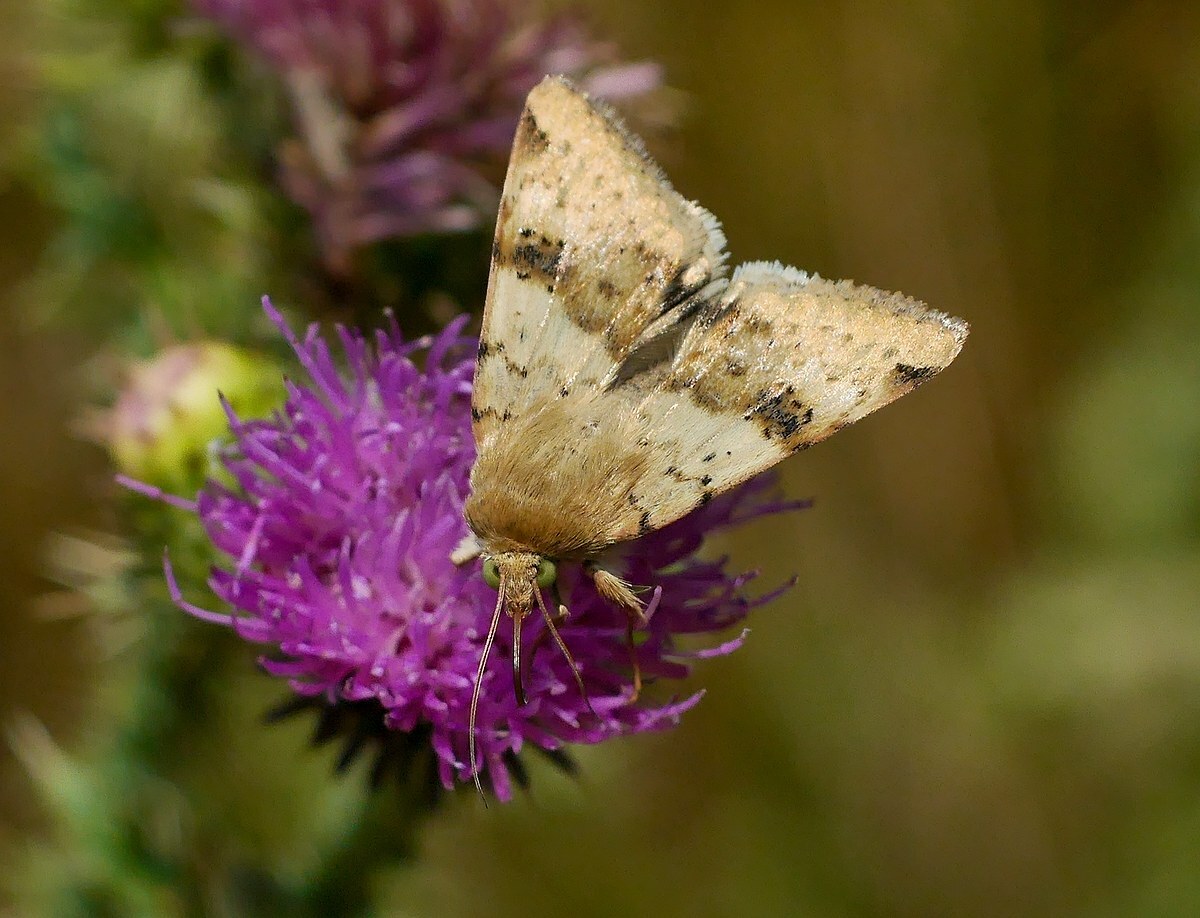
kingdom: Animalia
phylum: Arthropoda
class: Insecta
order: Lepidoptera
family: Noctuidae
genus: Heliothis
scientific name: Heliothis viriplaca
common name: Marbled clover
